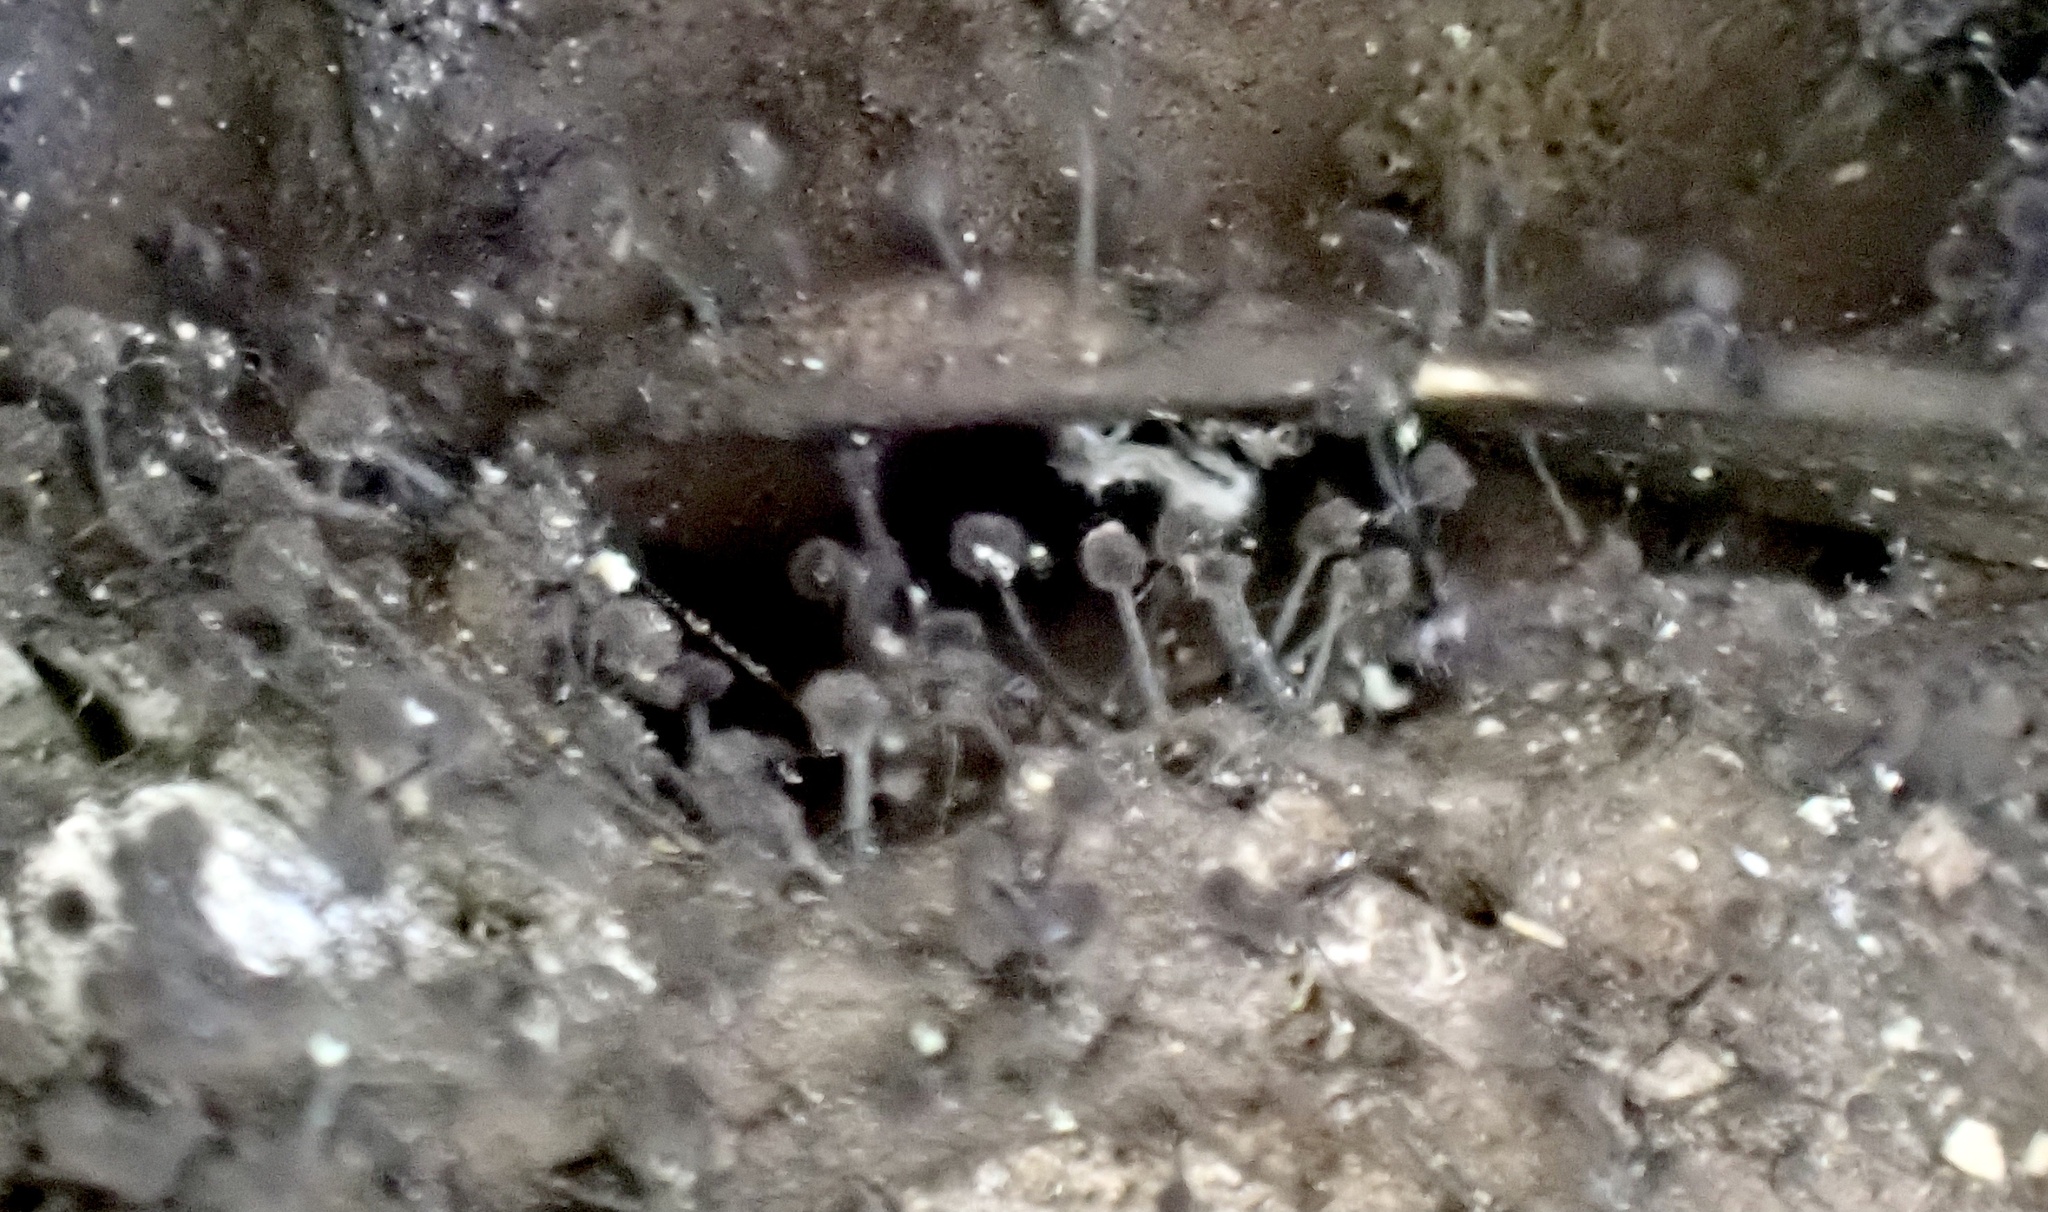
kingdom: Fungi
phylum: Ascomycota
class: Leotiomycetes
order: Helotiales
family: Amorphothecaceae
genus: Sorocybe
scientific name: Sorocybe resinae
